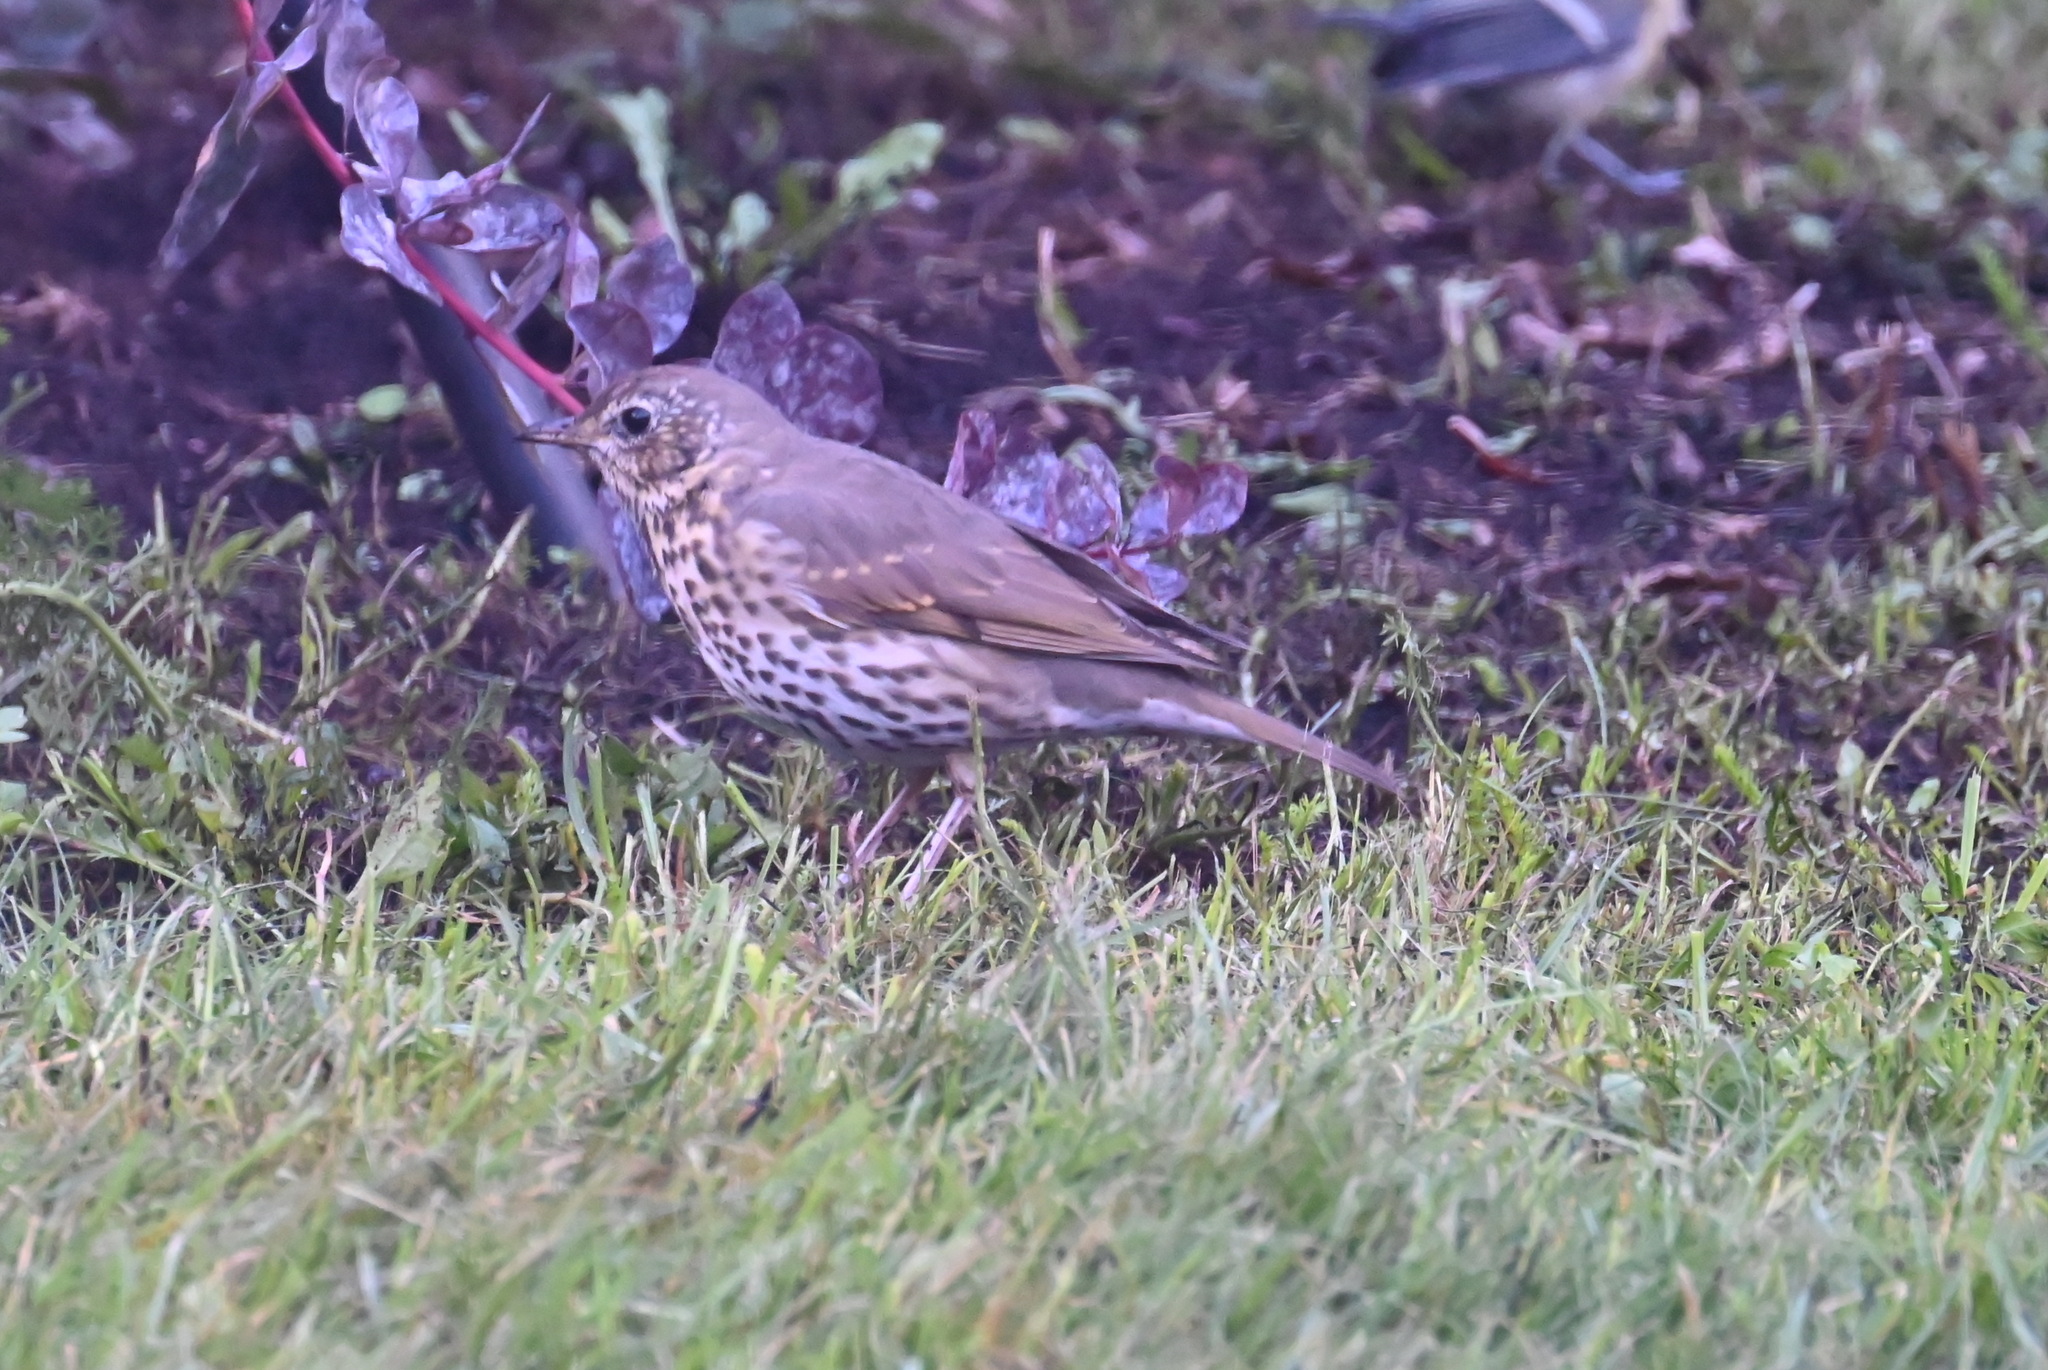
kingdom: Animalia
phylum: Chordata
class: Aves
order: Passeriformes
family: Turdidae
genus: Turdus
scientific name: Turdus philomelos
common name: Song thrush
